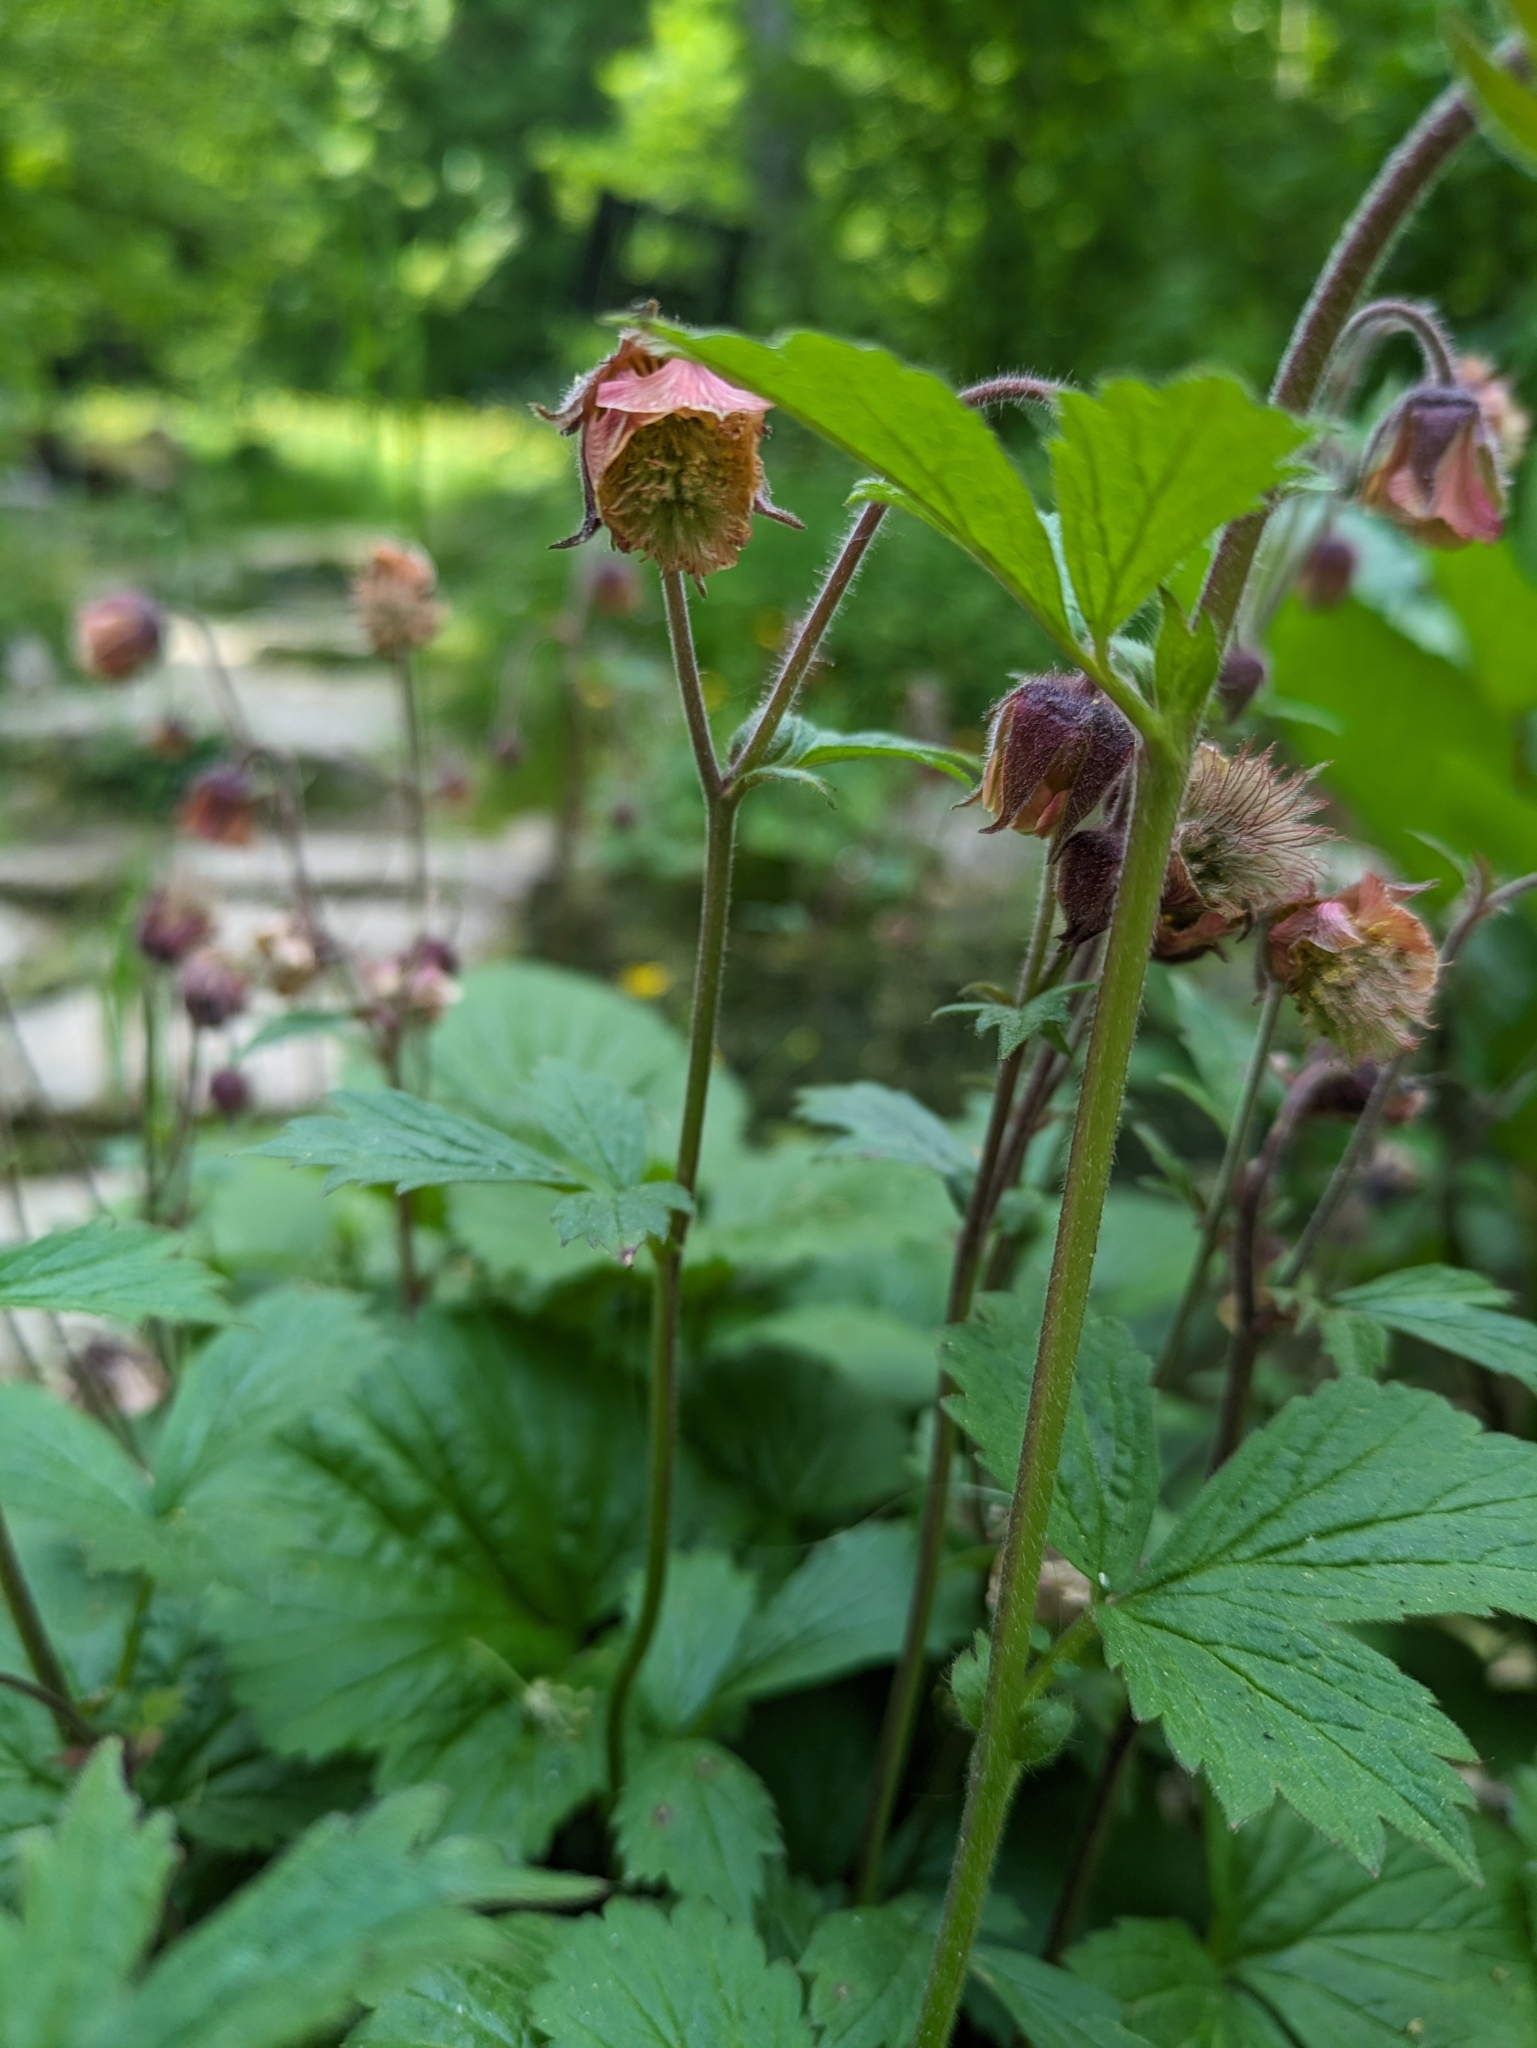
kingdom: Plantae
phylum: Tracheophyta
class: Magnoliopsida
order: Rosales
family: Rosaceae
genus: Geum
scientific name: Geum rivale
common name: Water avens
